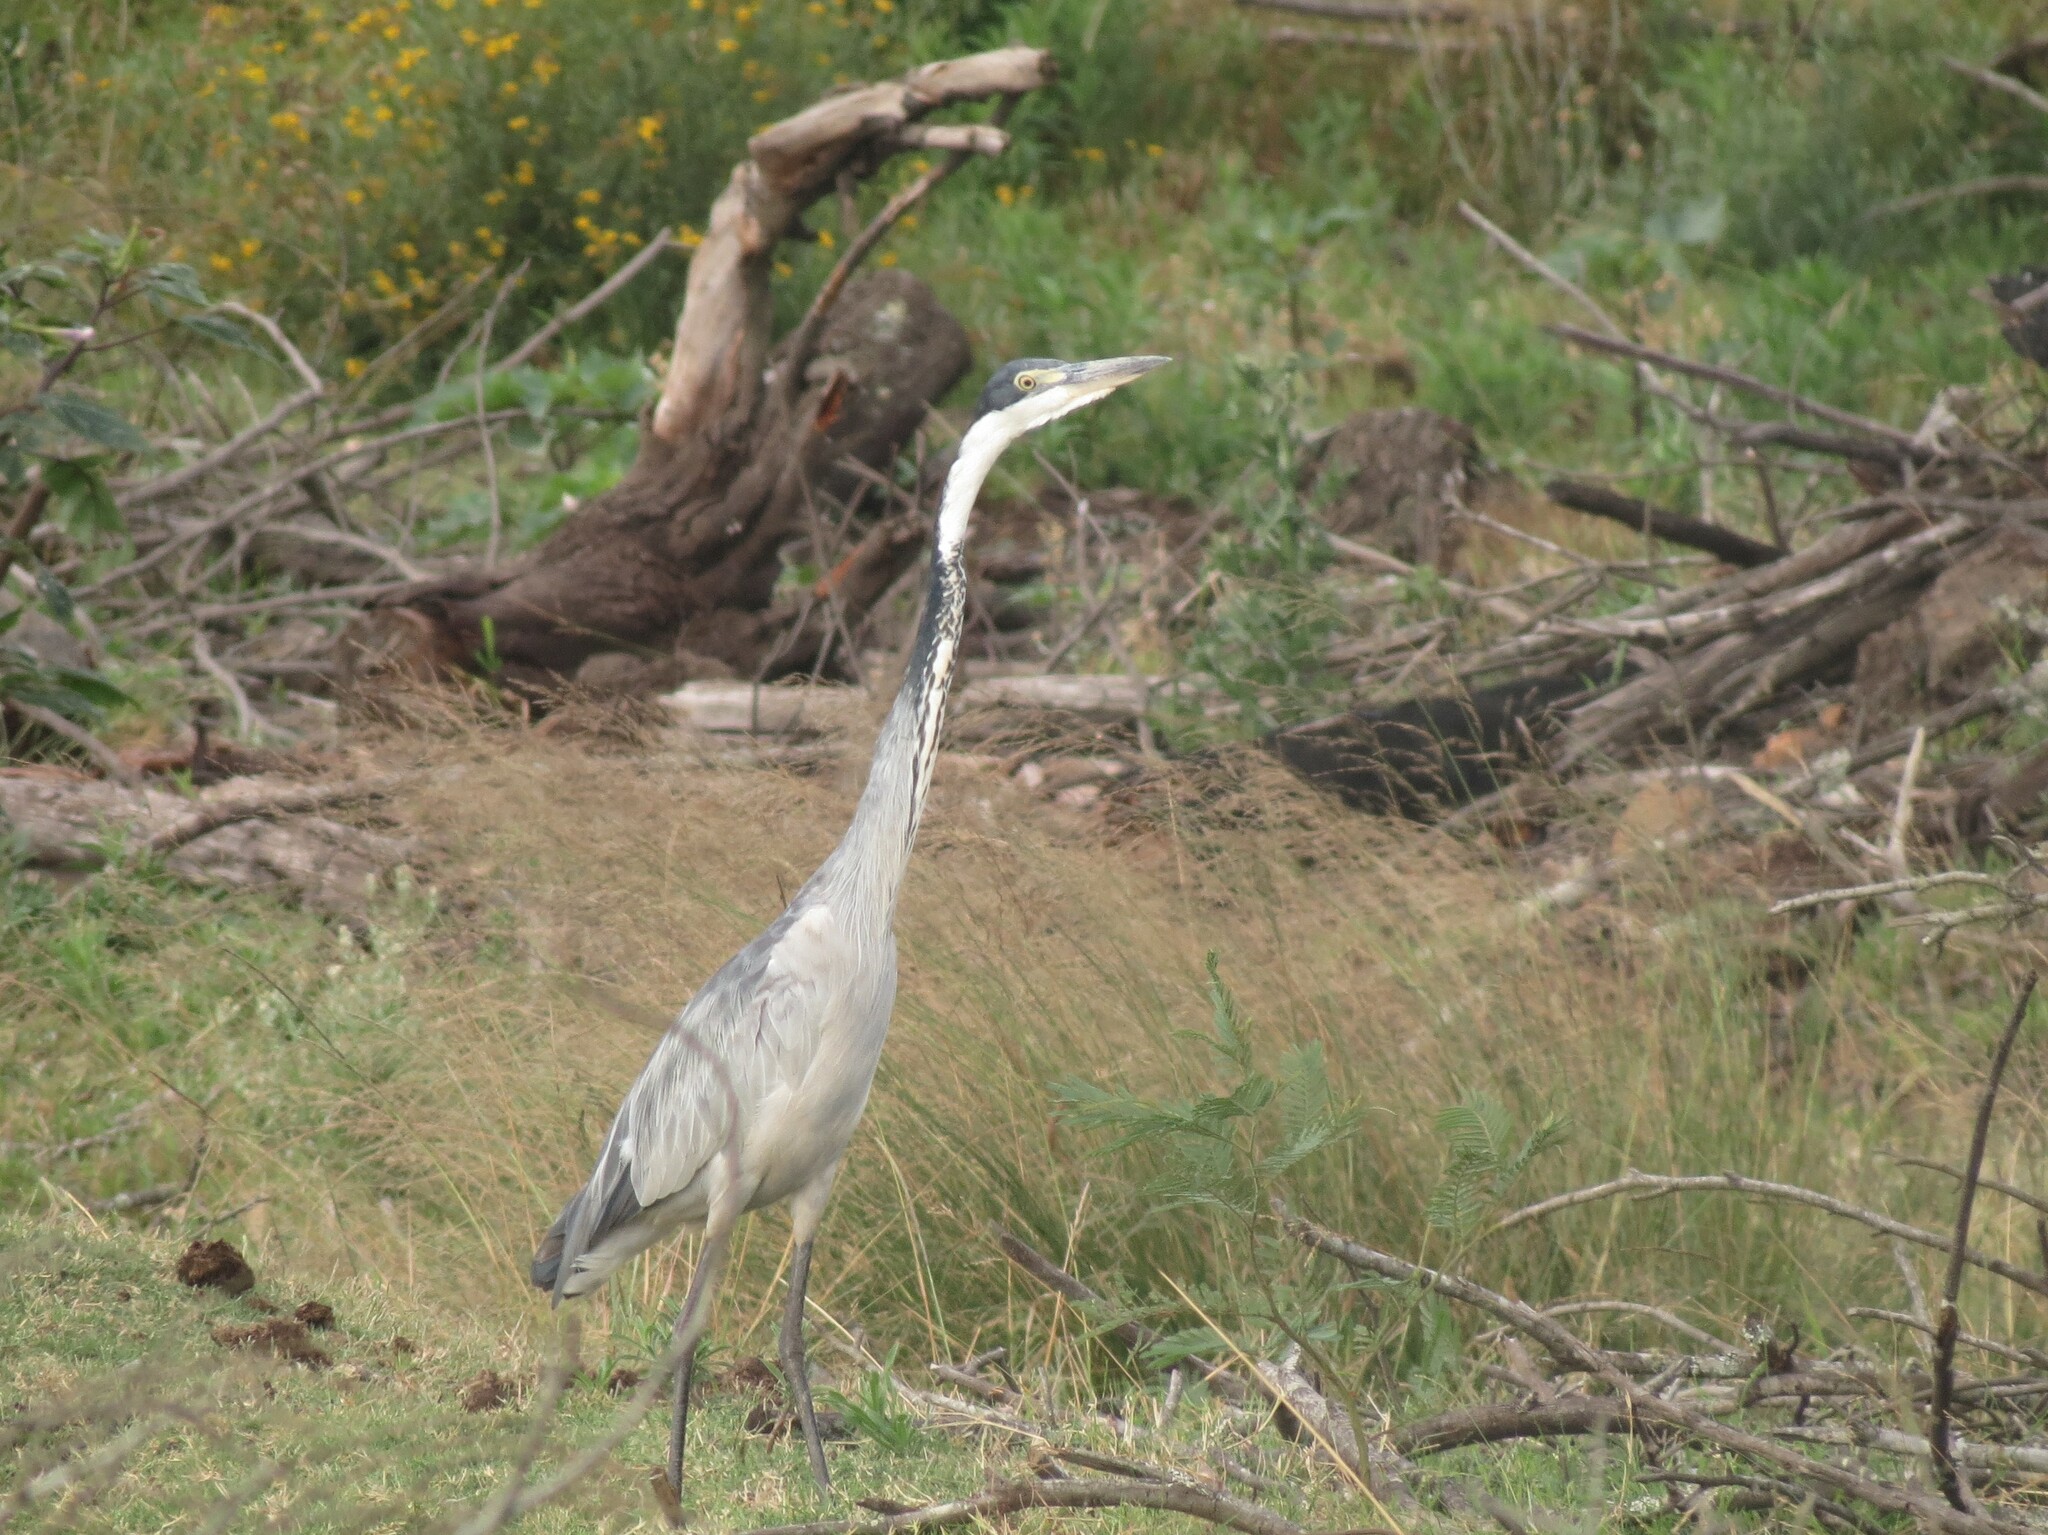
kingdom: Animalia
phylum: Chordata
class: Aves
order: Pelecaniformes
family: Ardeidae
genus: Ardea
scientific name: Ardea melanocephala
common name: Black-headed heron
